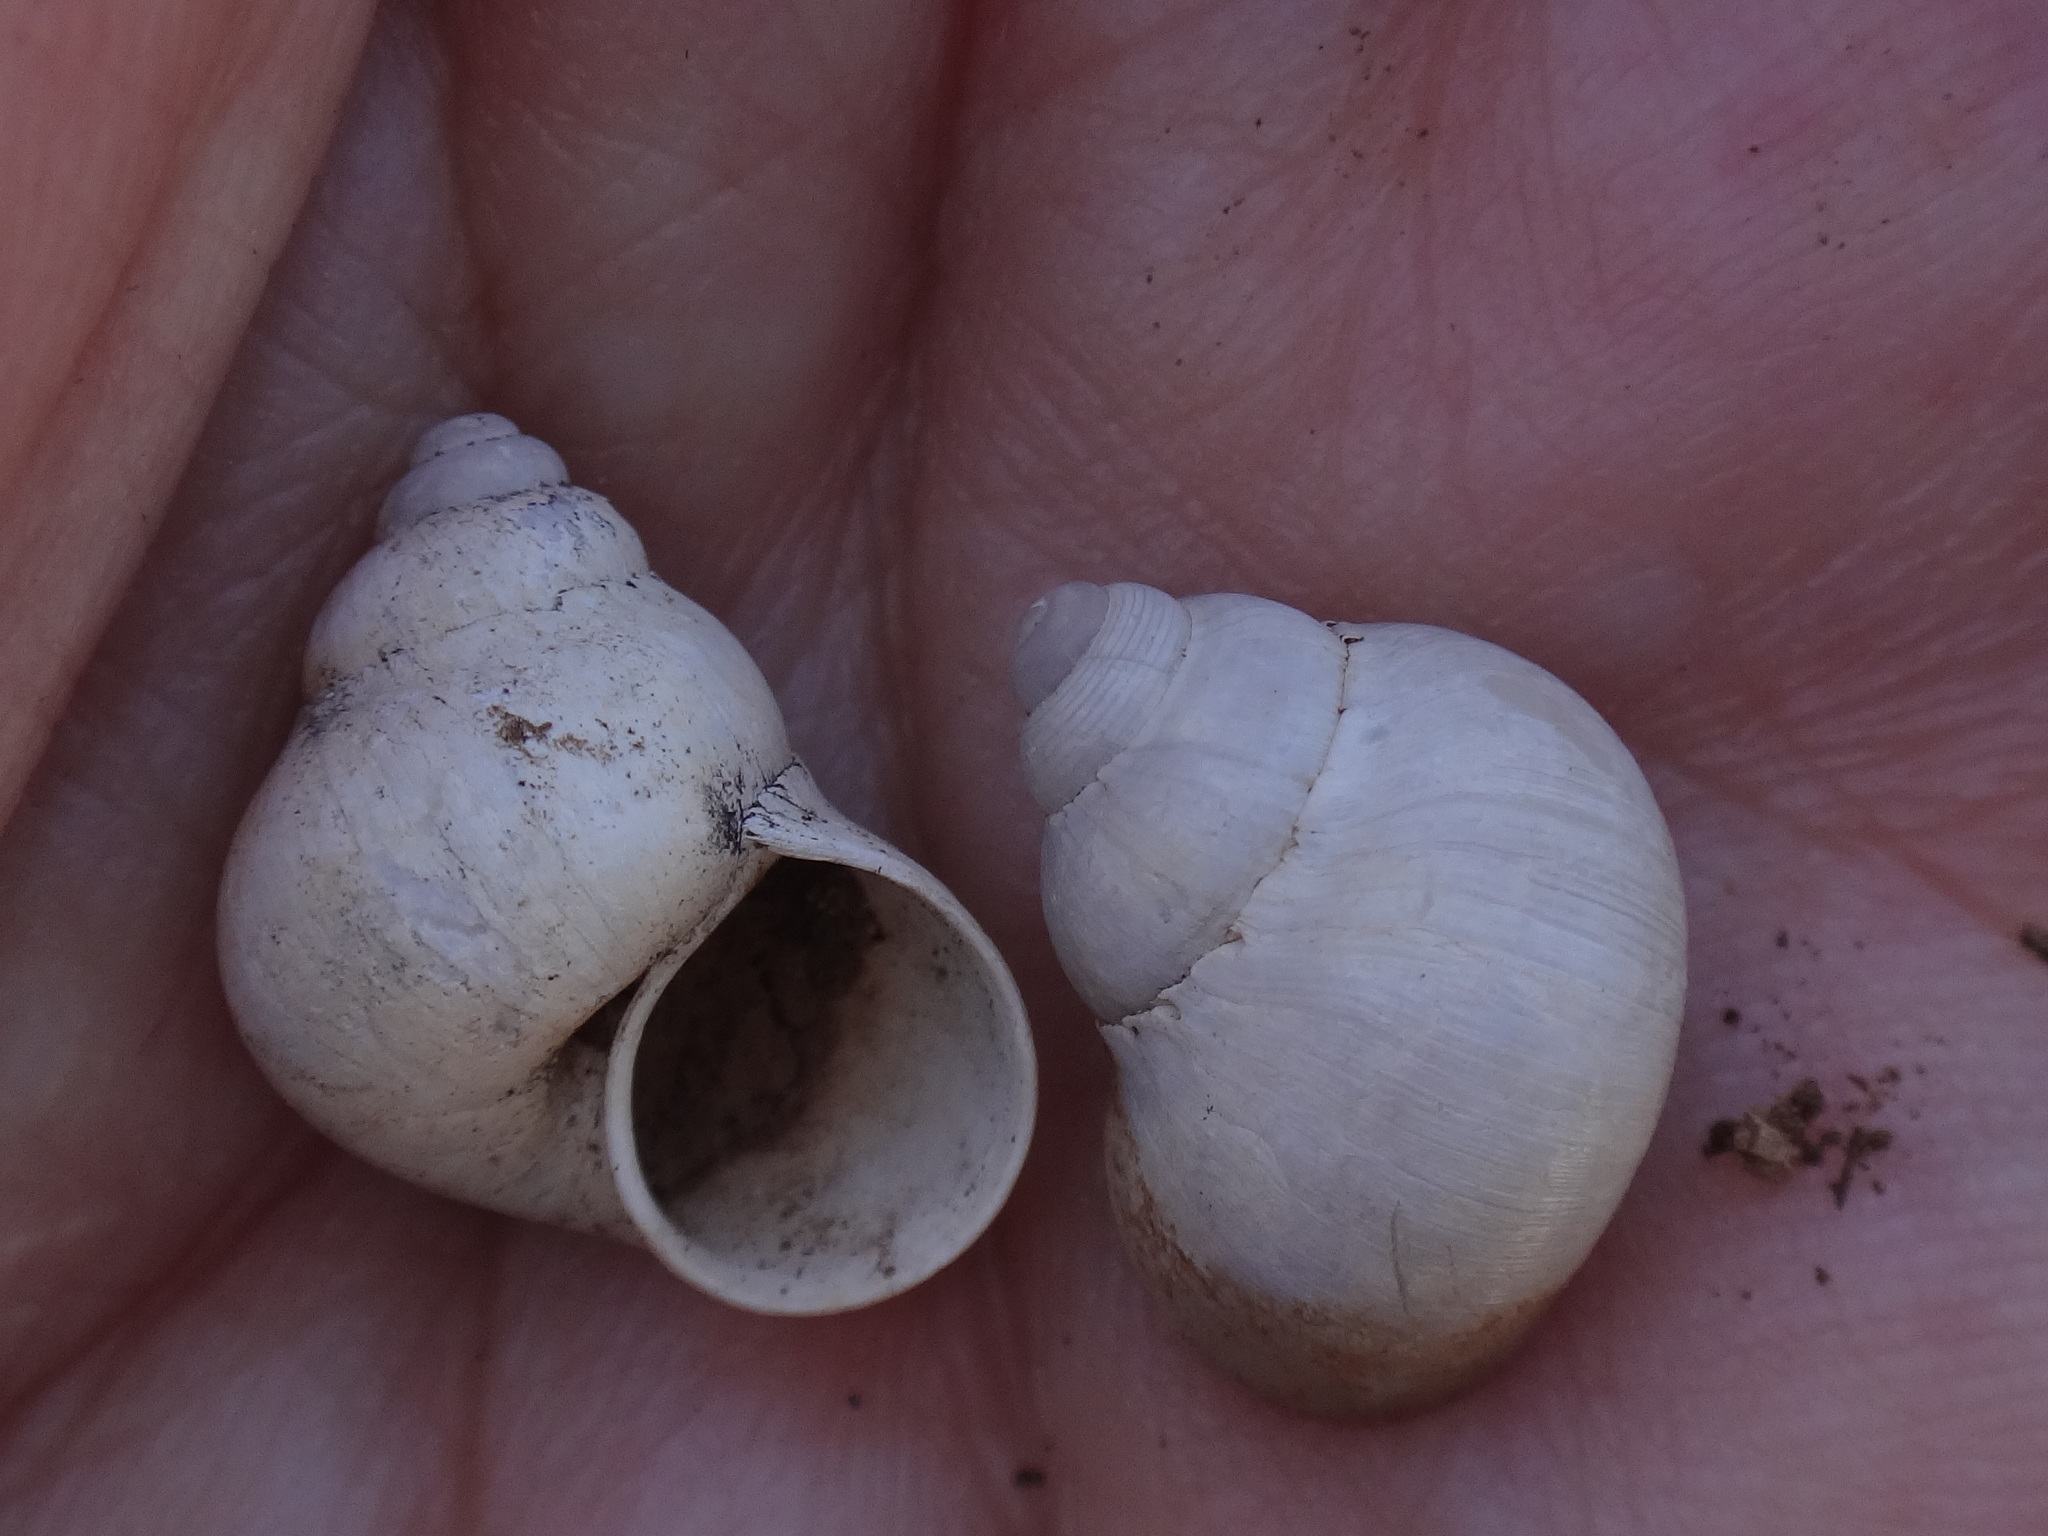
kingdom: Animalia
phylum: Mollusca
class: Gastropoda
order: Littorinimorpha
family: Pomatiidae
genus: Pomatias
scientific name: Pomatias canariensis
